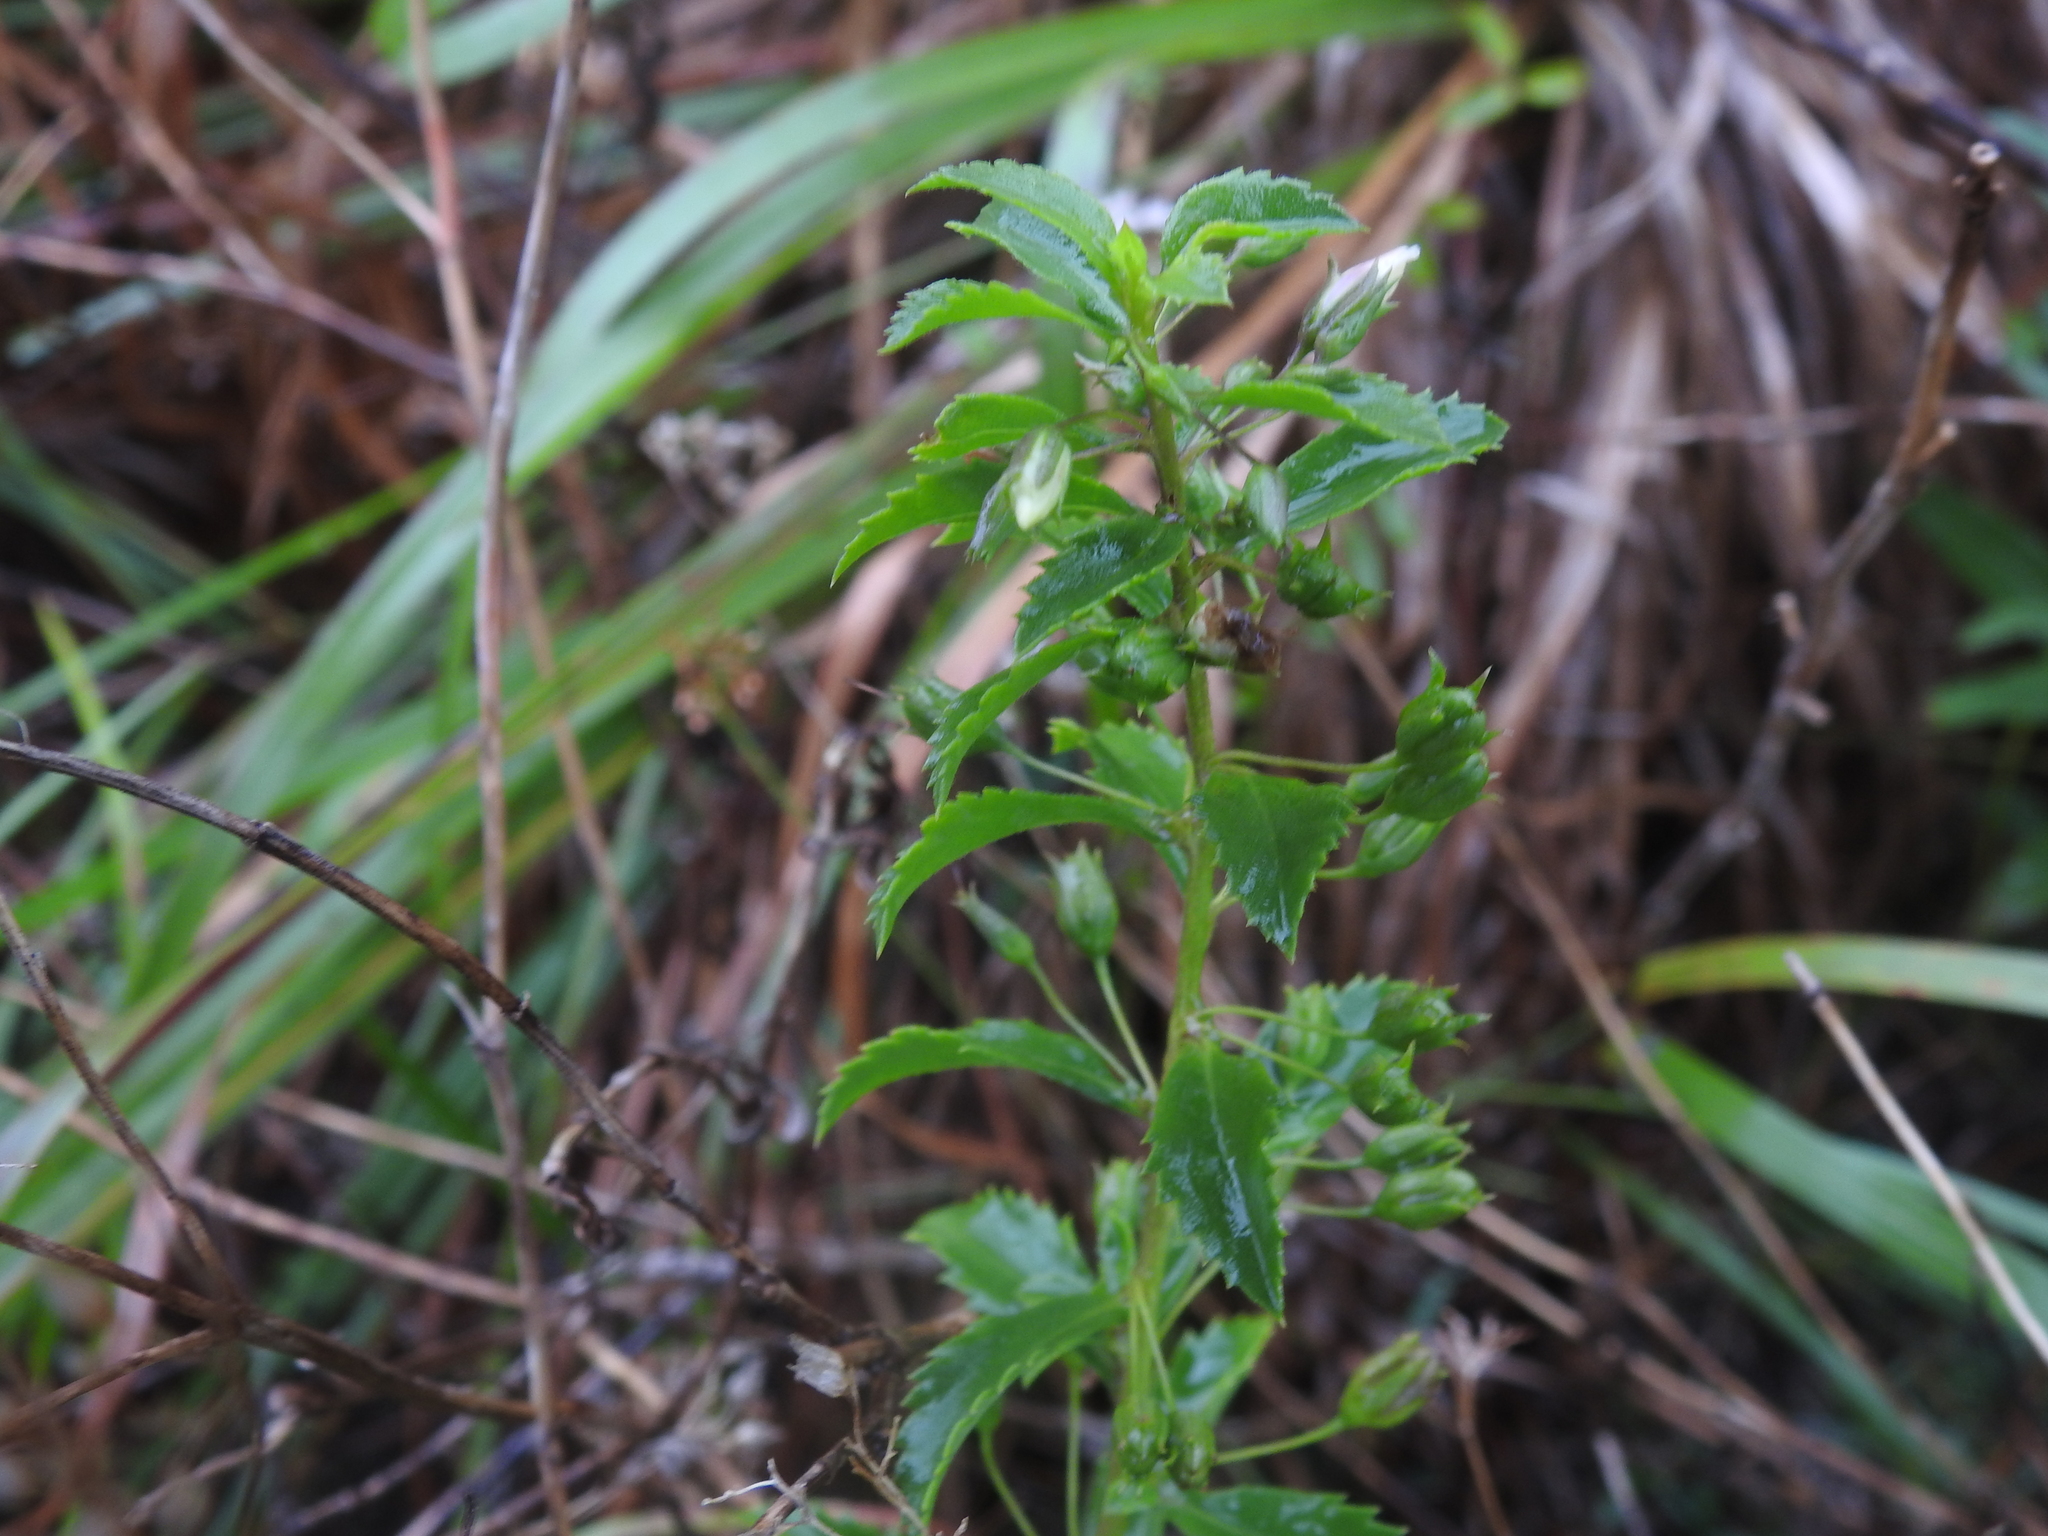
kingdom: Plantae
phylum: Tracheophyta
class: Magnoliopsida
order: Lamiales
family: Scrophulariaceae
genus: Capraria
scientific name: Capraria biflora
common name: Goatweed
